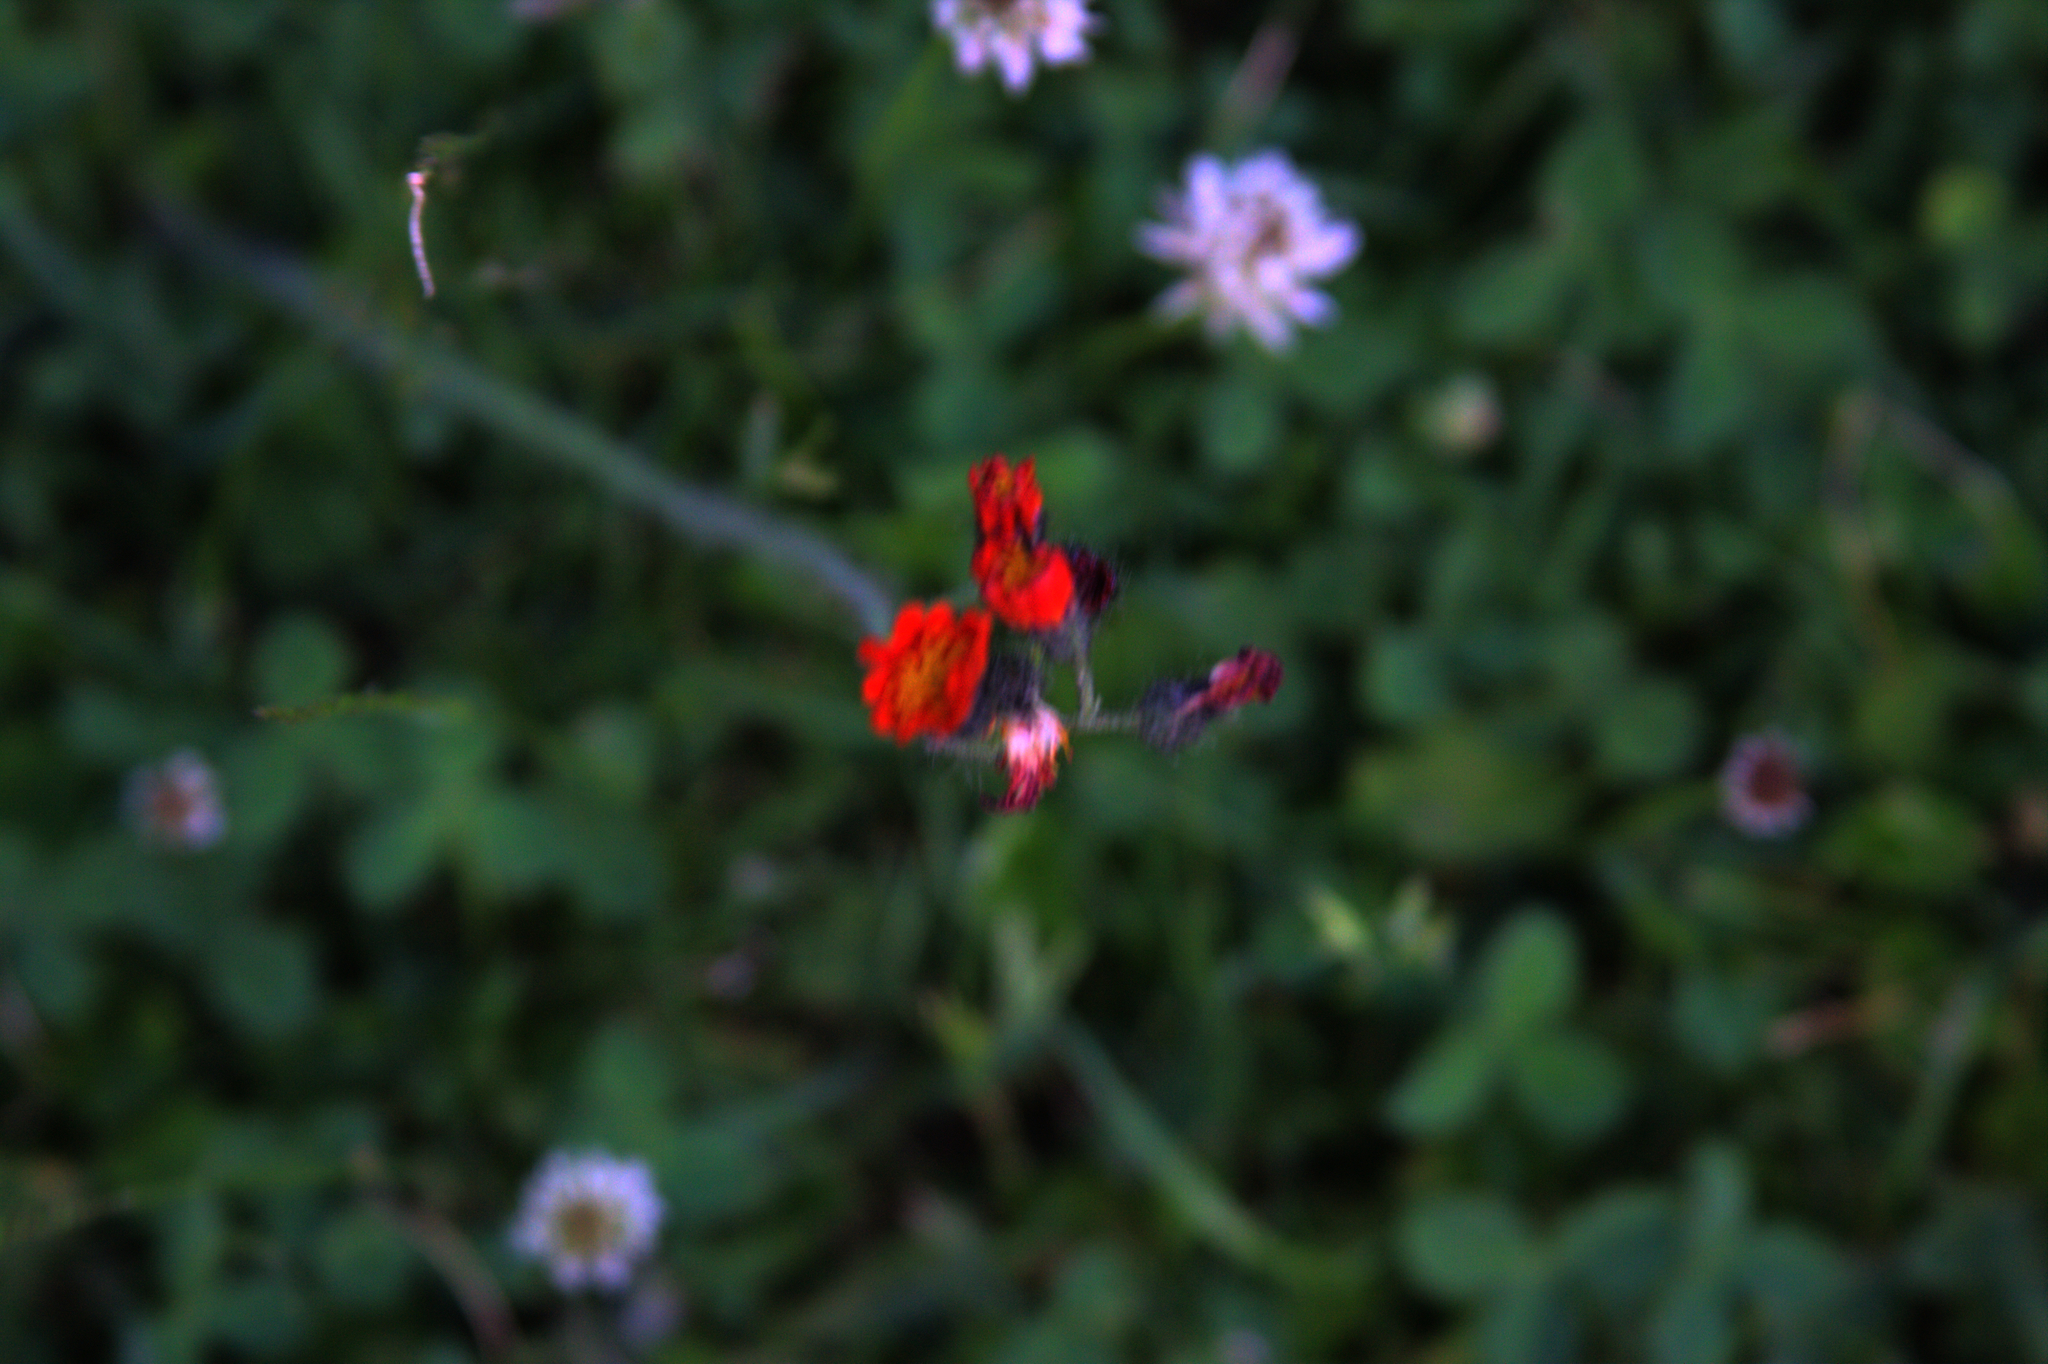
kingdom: Plantae
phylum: Tracheophyta
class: Magnoliopsida
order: Asterales
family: Asteraceae
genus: Pilosella
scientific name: Pilosella aurantiaca
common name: Fox-and-cubs
